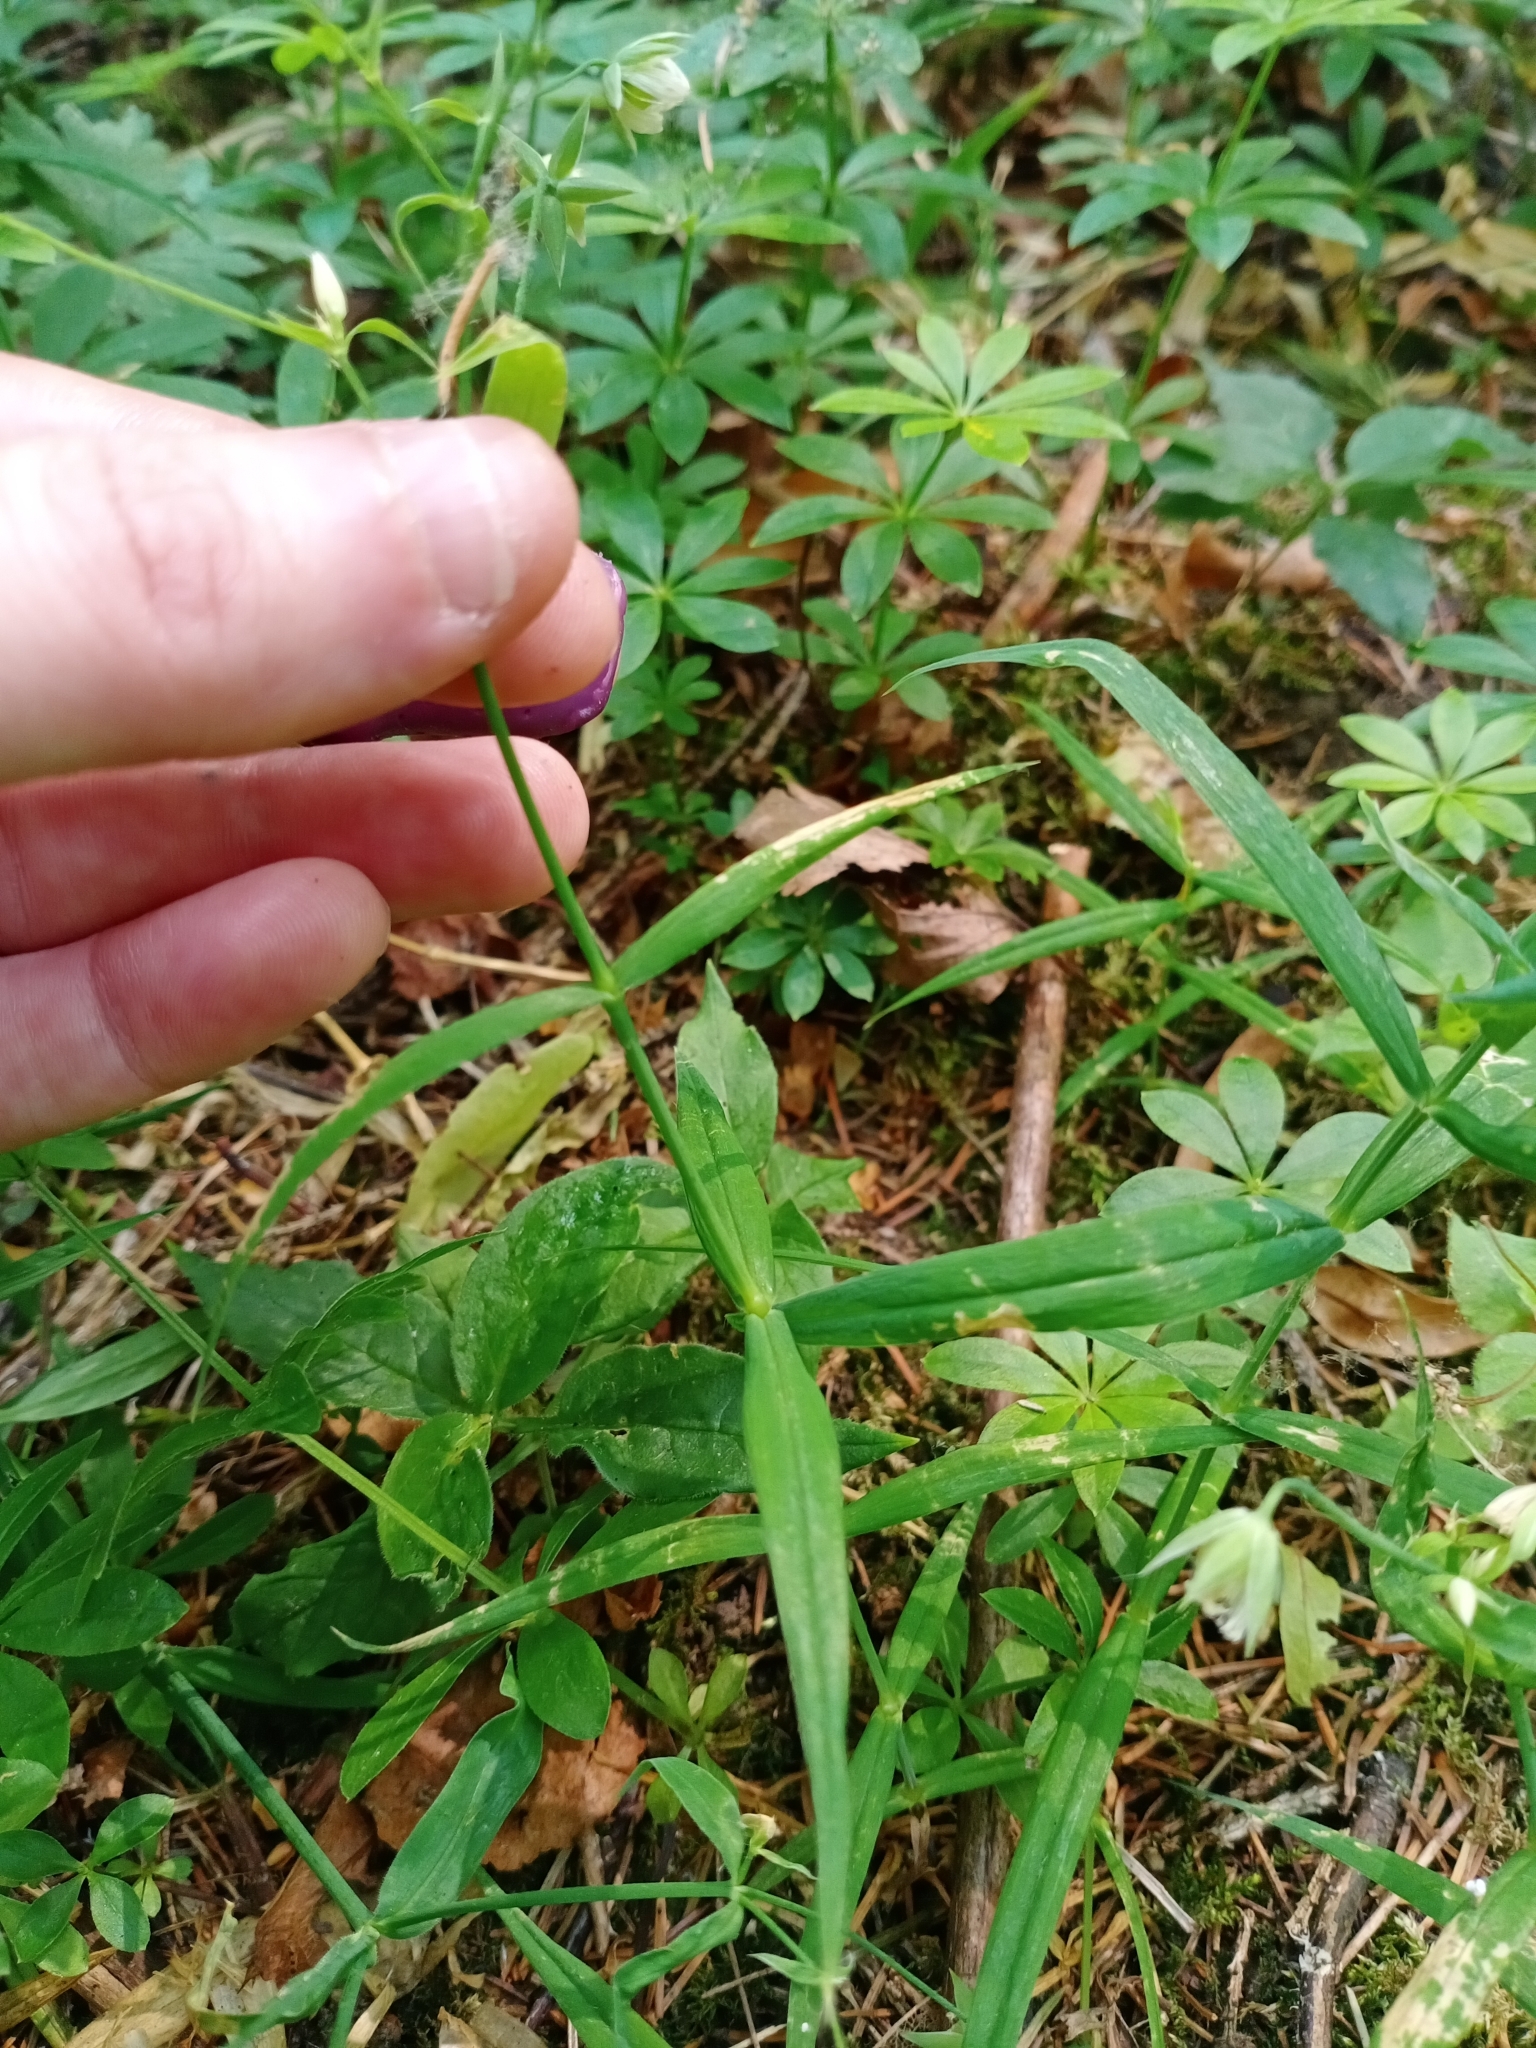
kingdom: Plantae
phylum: Tracheophyta
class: Magnoliopsida
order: Caryophyllales
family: Caryophyllaceae
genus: Rabelera
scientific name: Rabelera holostea
